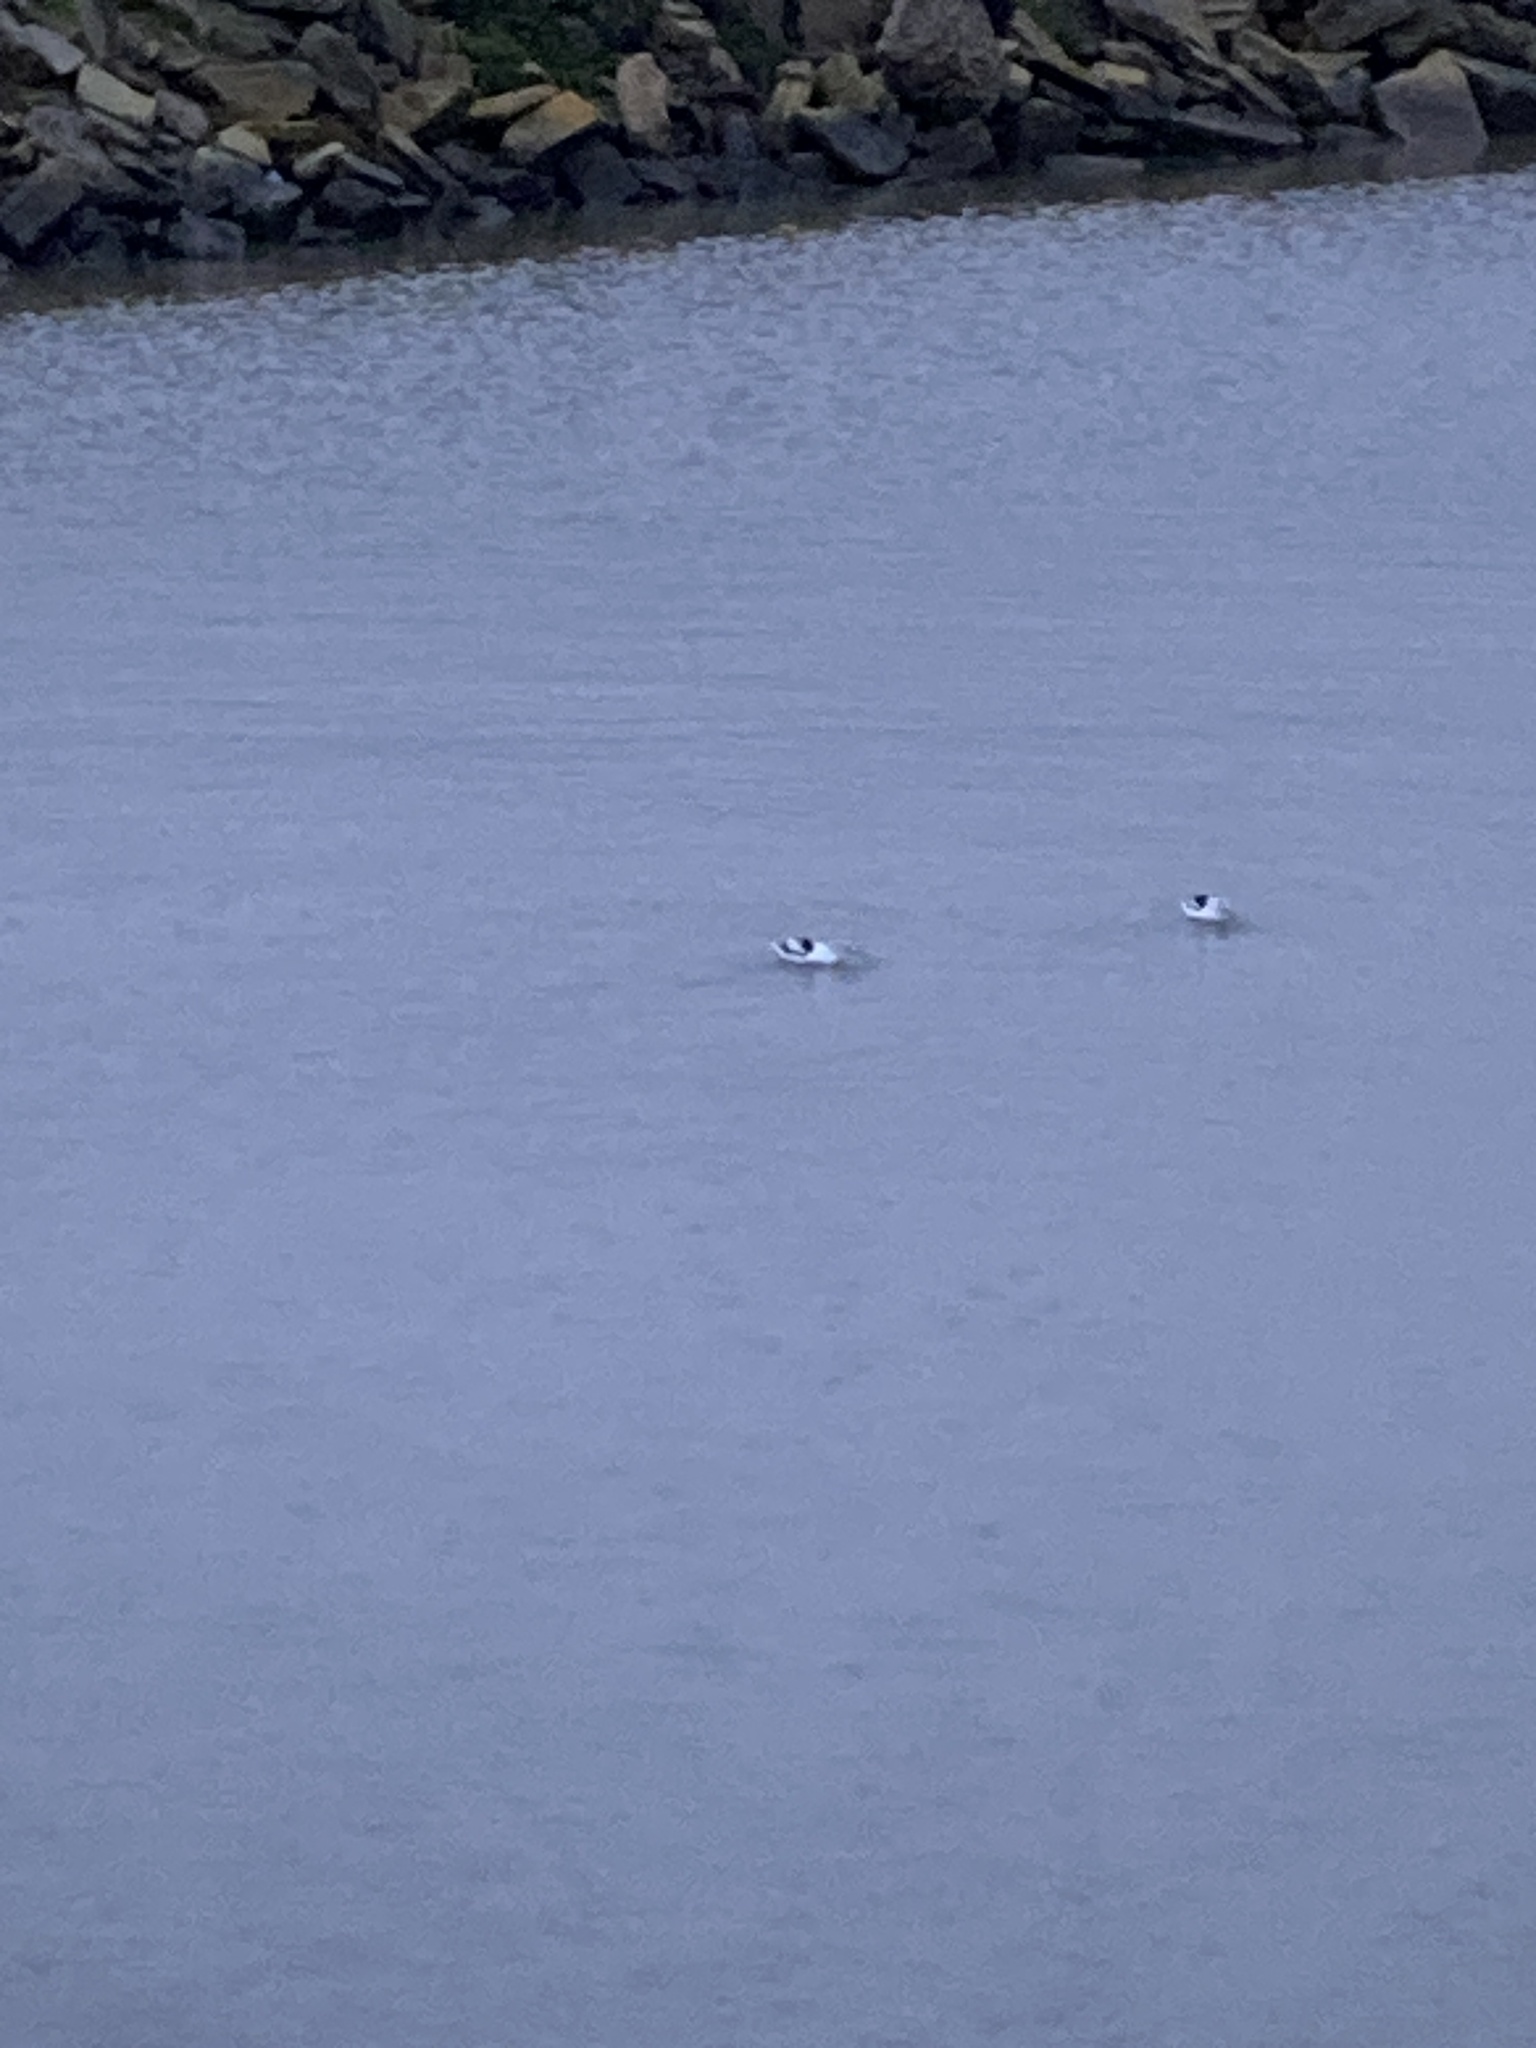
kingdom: Animalia
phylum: Chordata
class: Aves
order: Charadriiformes
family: Recurvirostridae
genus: Recurvirostra
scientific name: Recurvirostra americana
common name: American avocet
